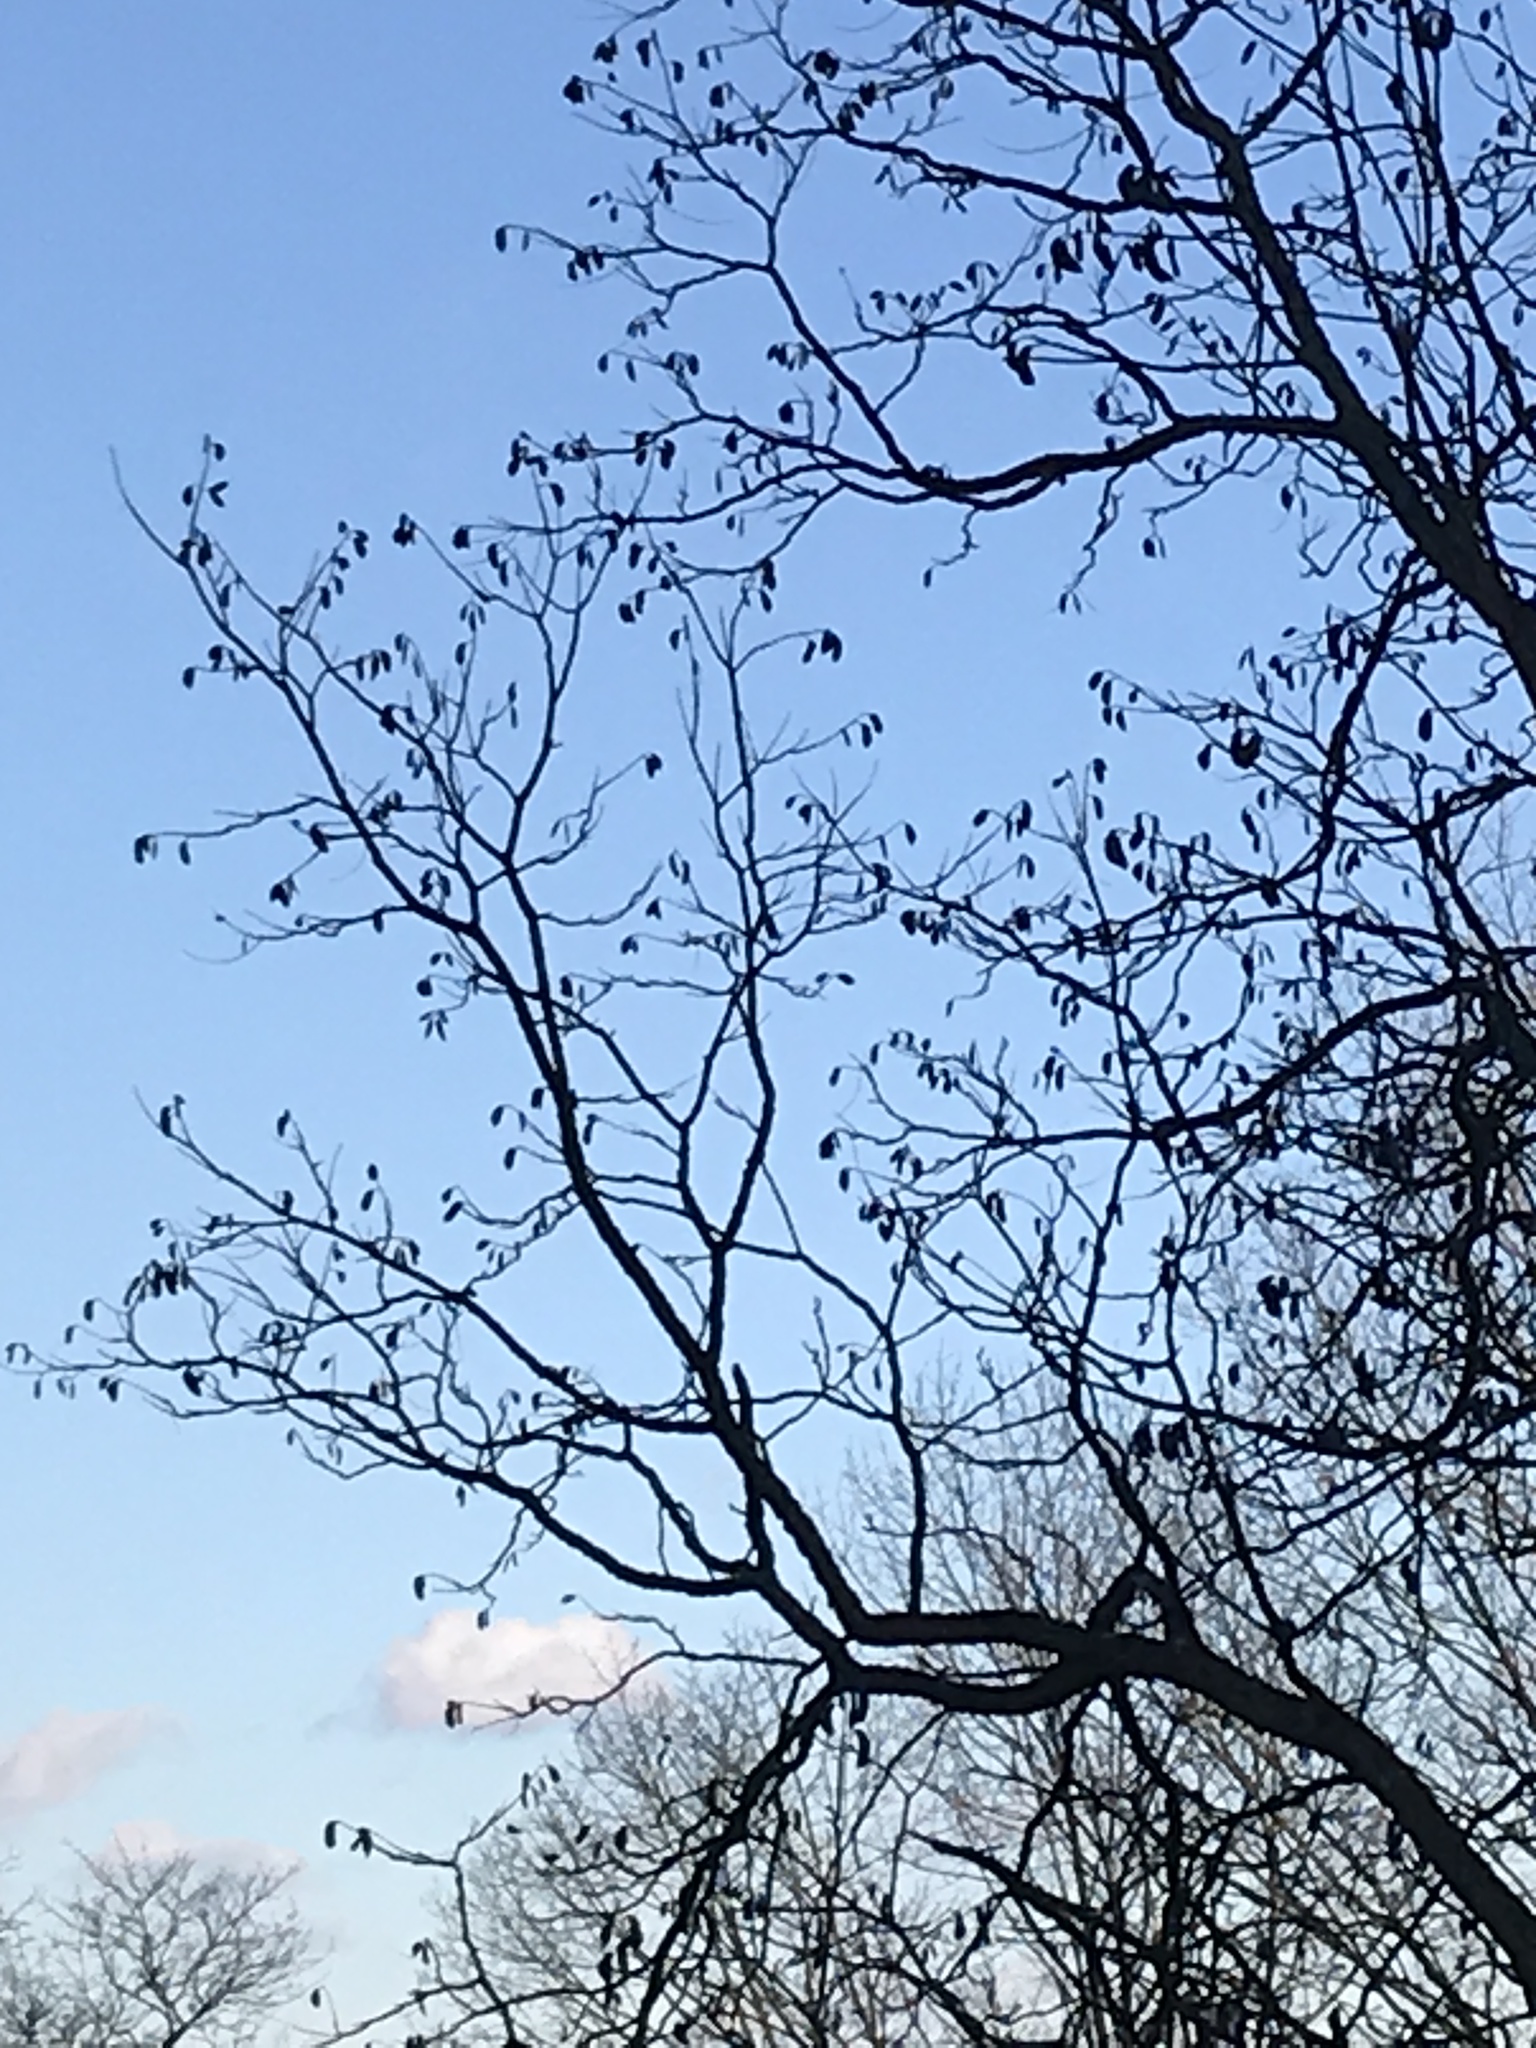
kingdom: Plantae
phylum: Tracheophyta
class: Magnoliopsida
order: Fabales
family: Fabaceae
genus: Gymnocladus
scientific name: Gymnocladus dioicus
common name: Kentucky coffee-tree
